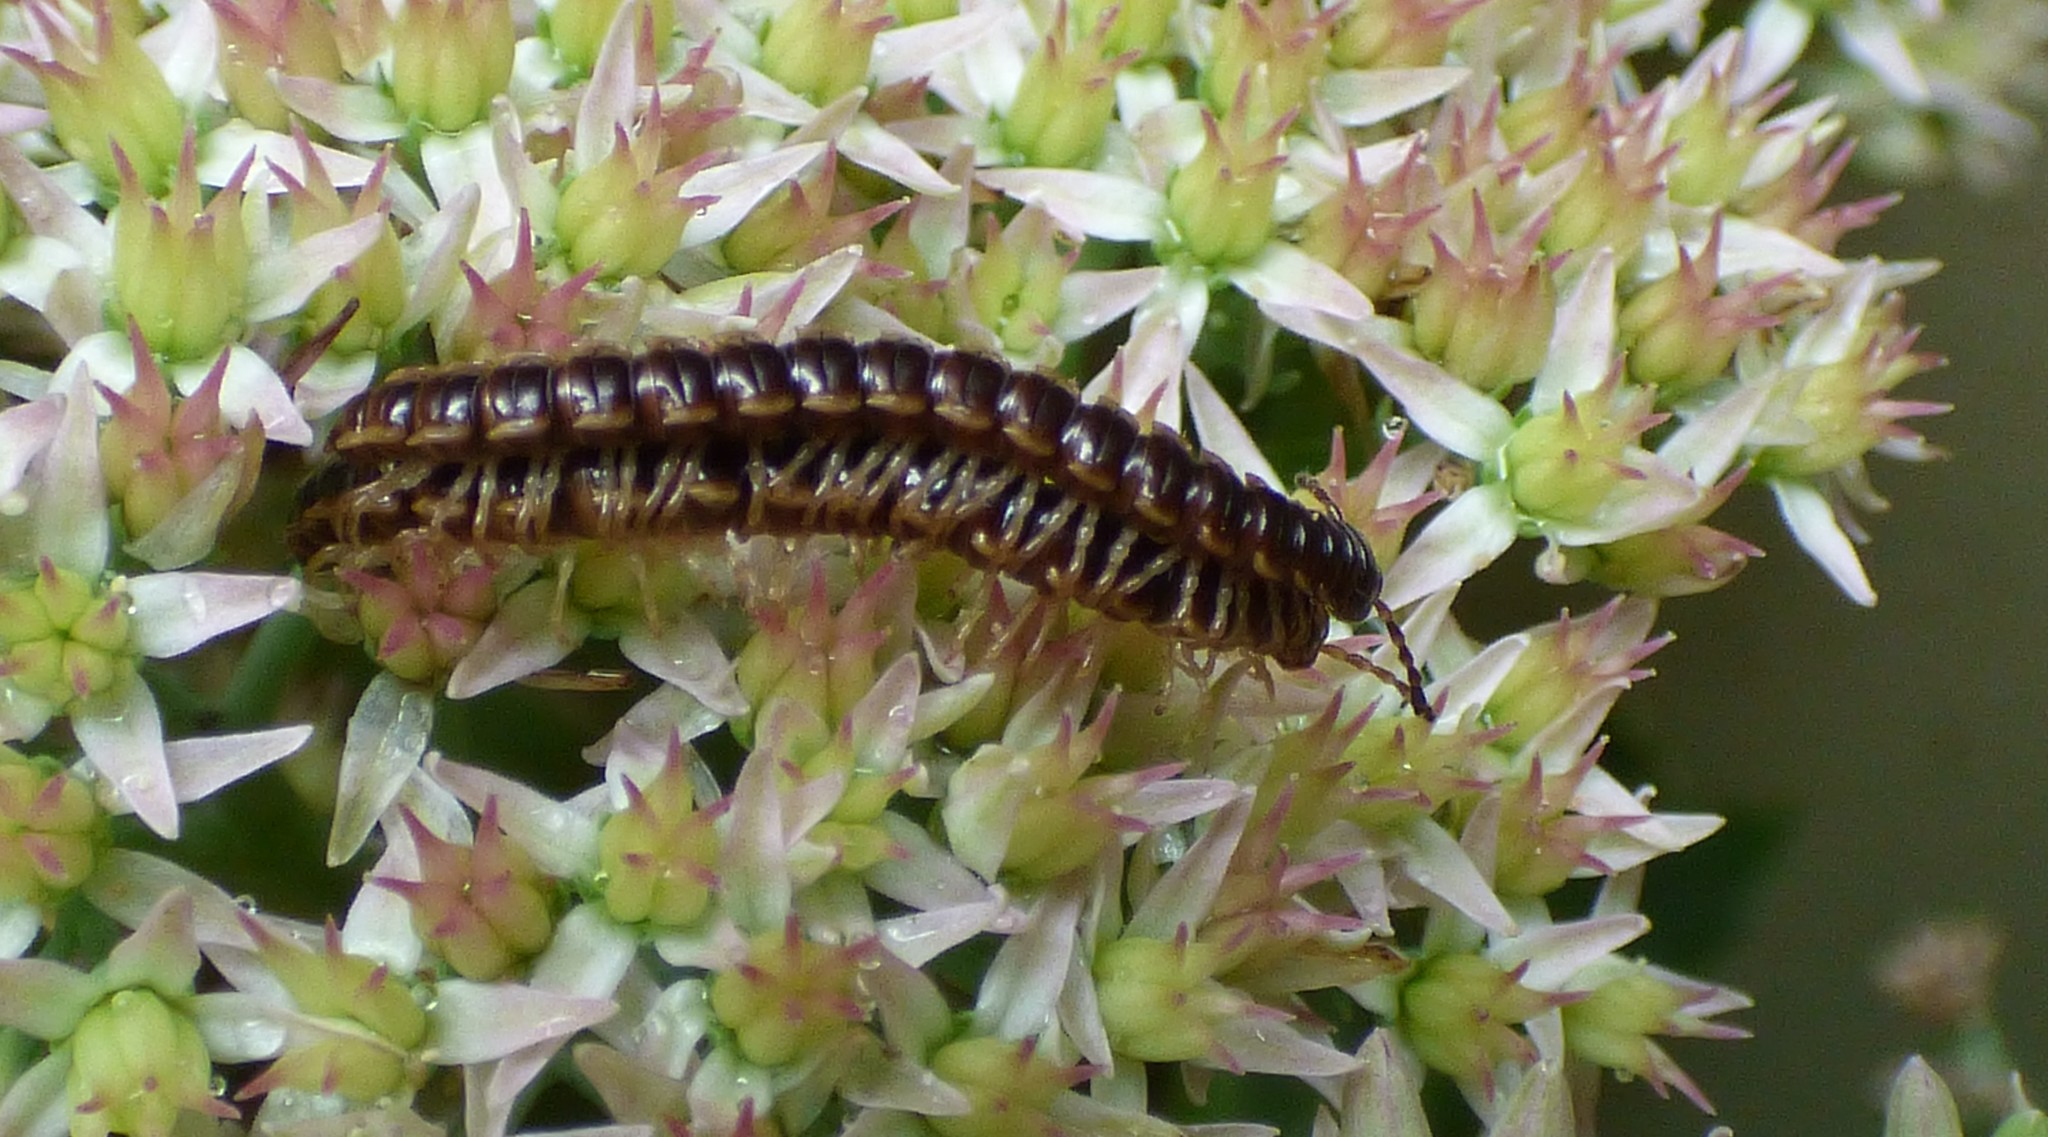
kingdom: Animalia
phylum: Arthropoda
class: Diplopoda
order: Polydesmida
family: Paradoxosomatidae
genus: Oxidus
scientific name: Oxidus gracilis
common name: Greenhouse millipede
